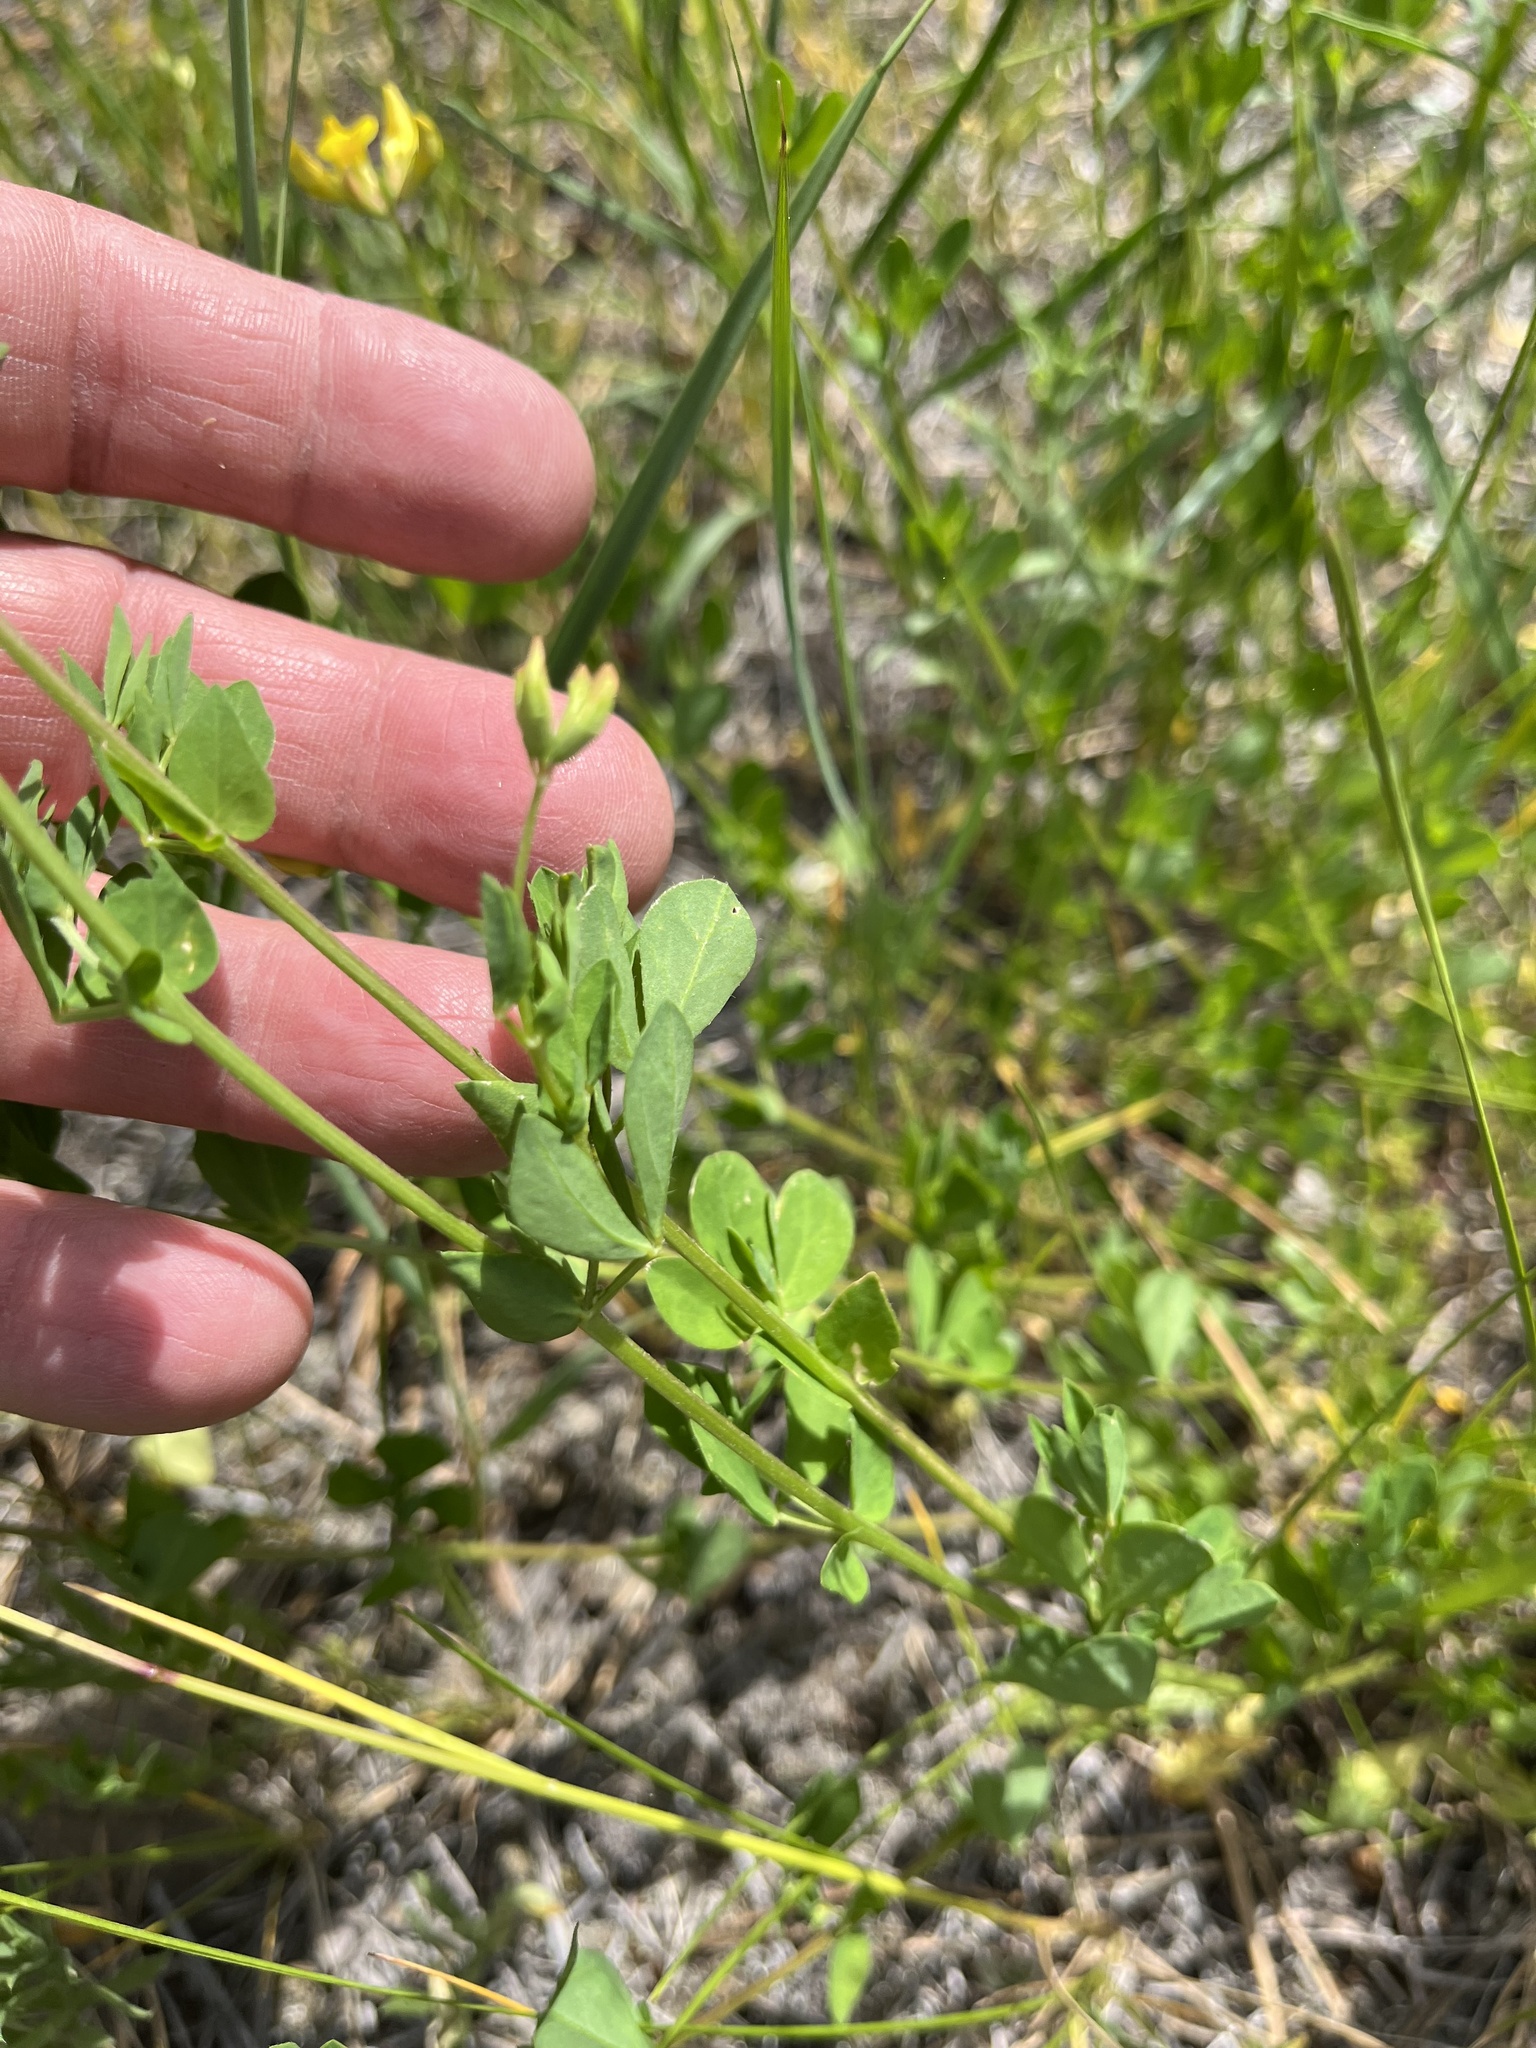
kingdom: Plantae
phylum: Tracheophyta
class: Magnoliopsida
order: Fabales
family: Fabaceae
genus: Lotus
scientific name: Lotus corniculatus
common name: Common bird's-foot-trefoil
